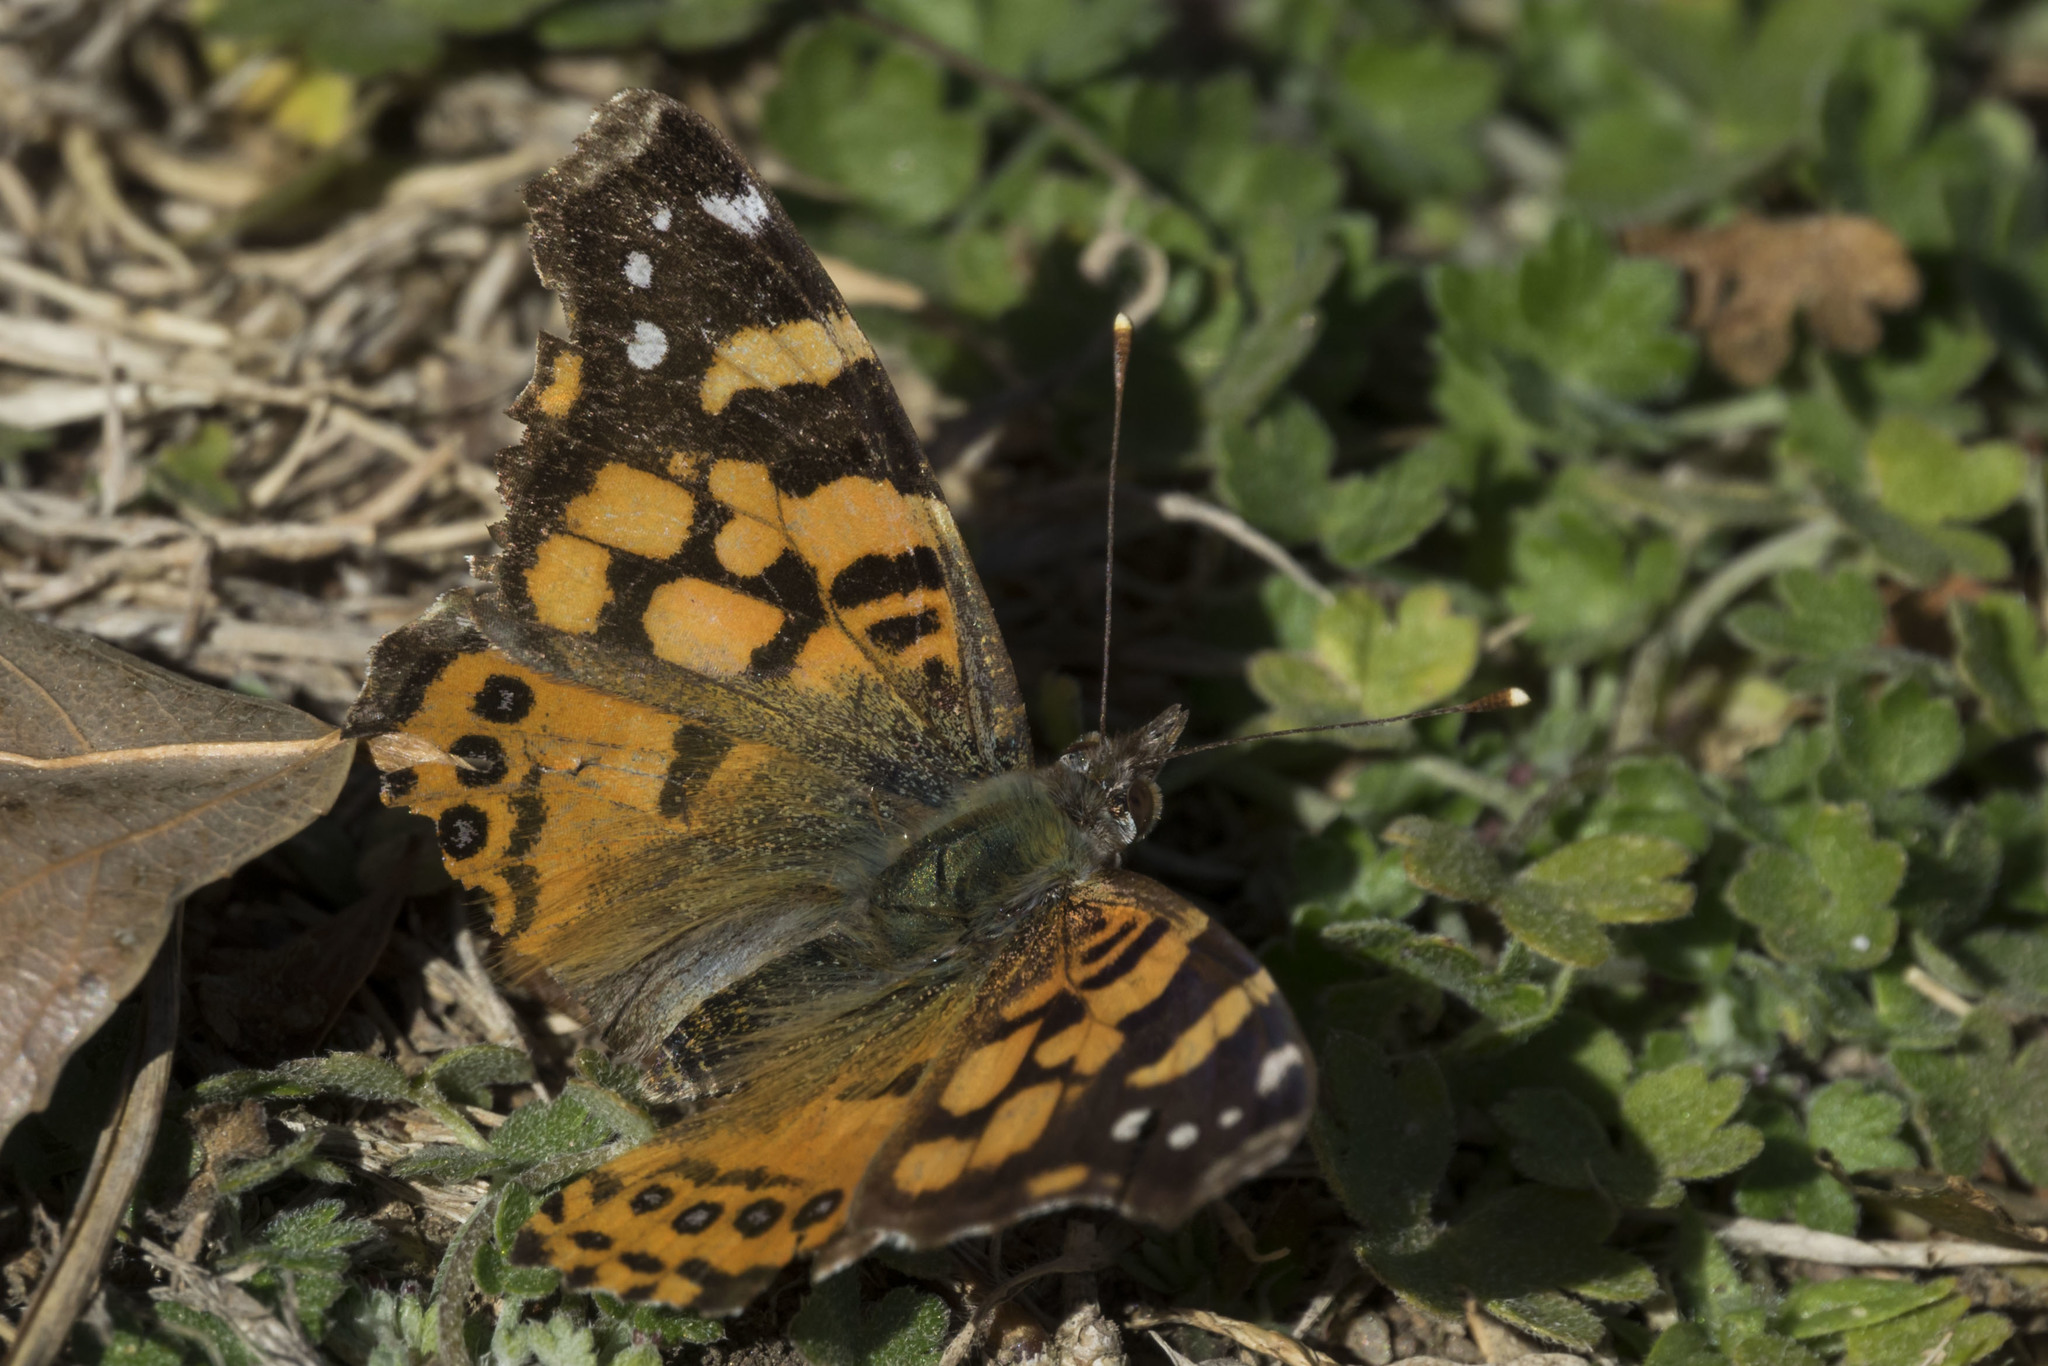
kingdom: Animalia
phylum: Arthropoda
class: Insecta
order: Lepidoptera
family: Nymphalidae
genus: Vanessa
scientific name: Vanessa carye
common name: Subtropical lady
